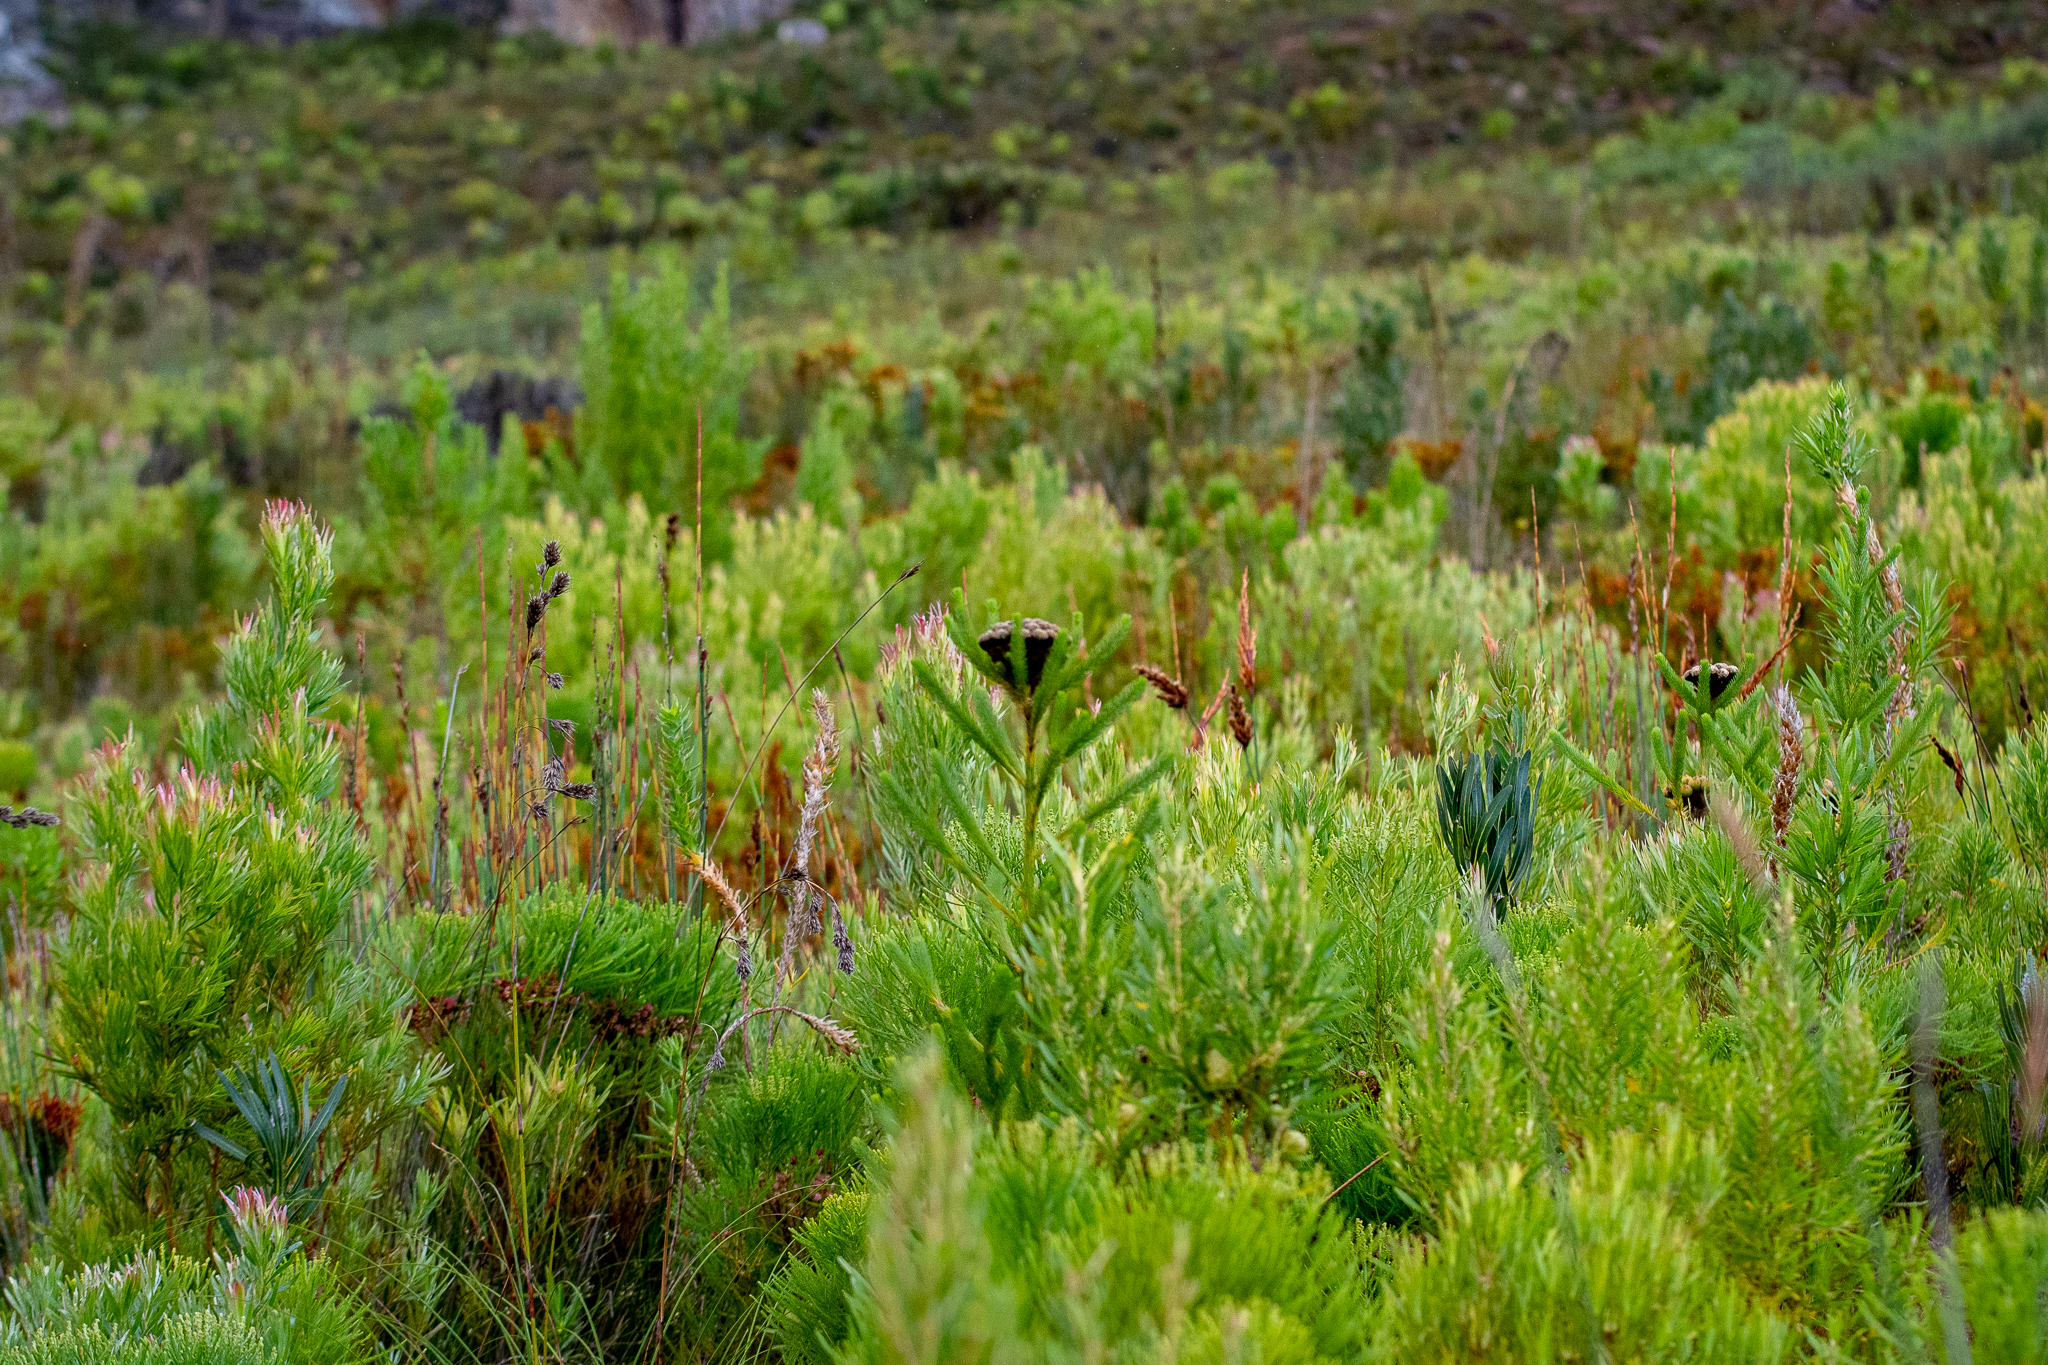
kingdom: Plantae
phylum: Tracheophyta
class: Magnoliopsida
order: Bruniales
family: Bruniaceae
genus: Berzelia
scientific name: Berzelia albiflora
